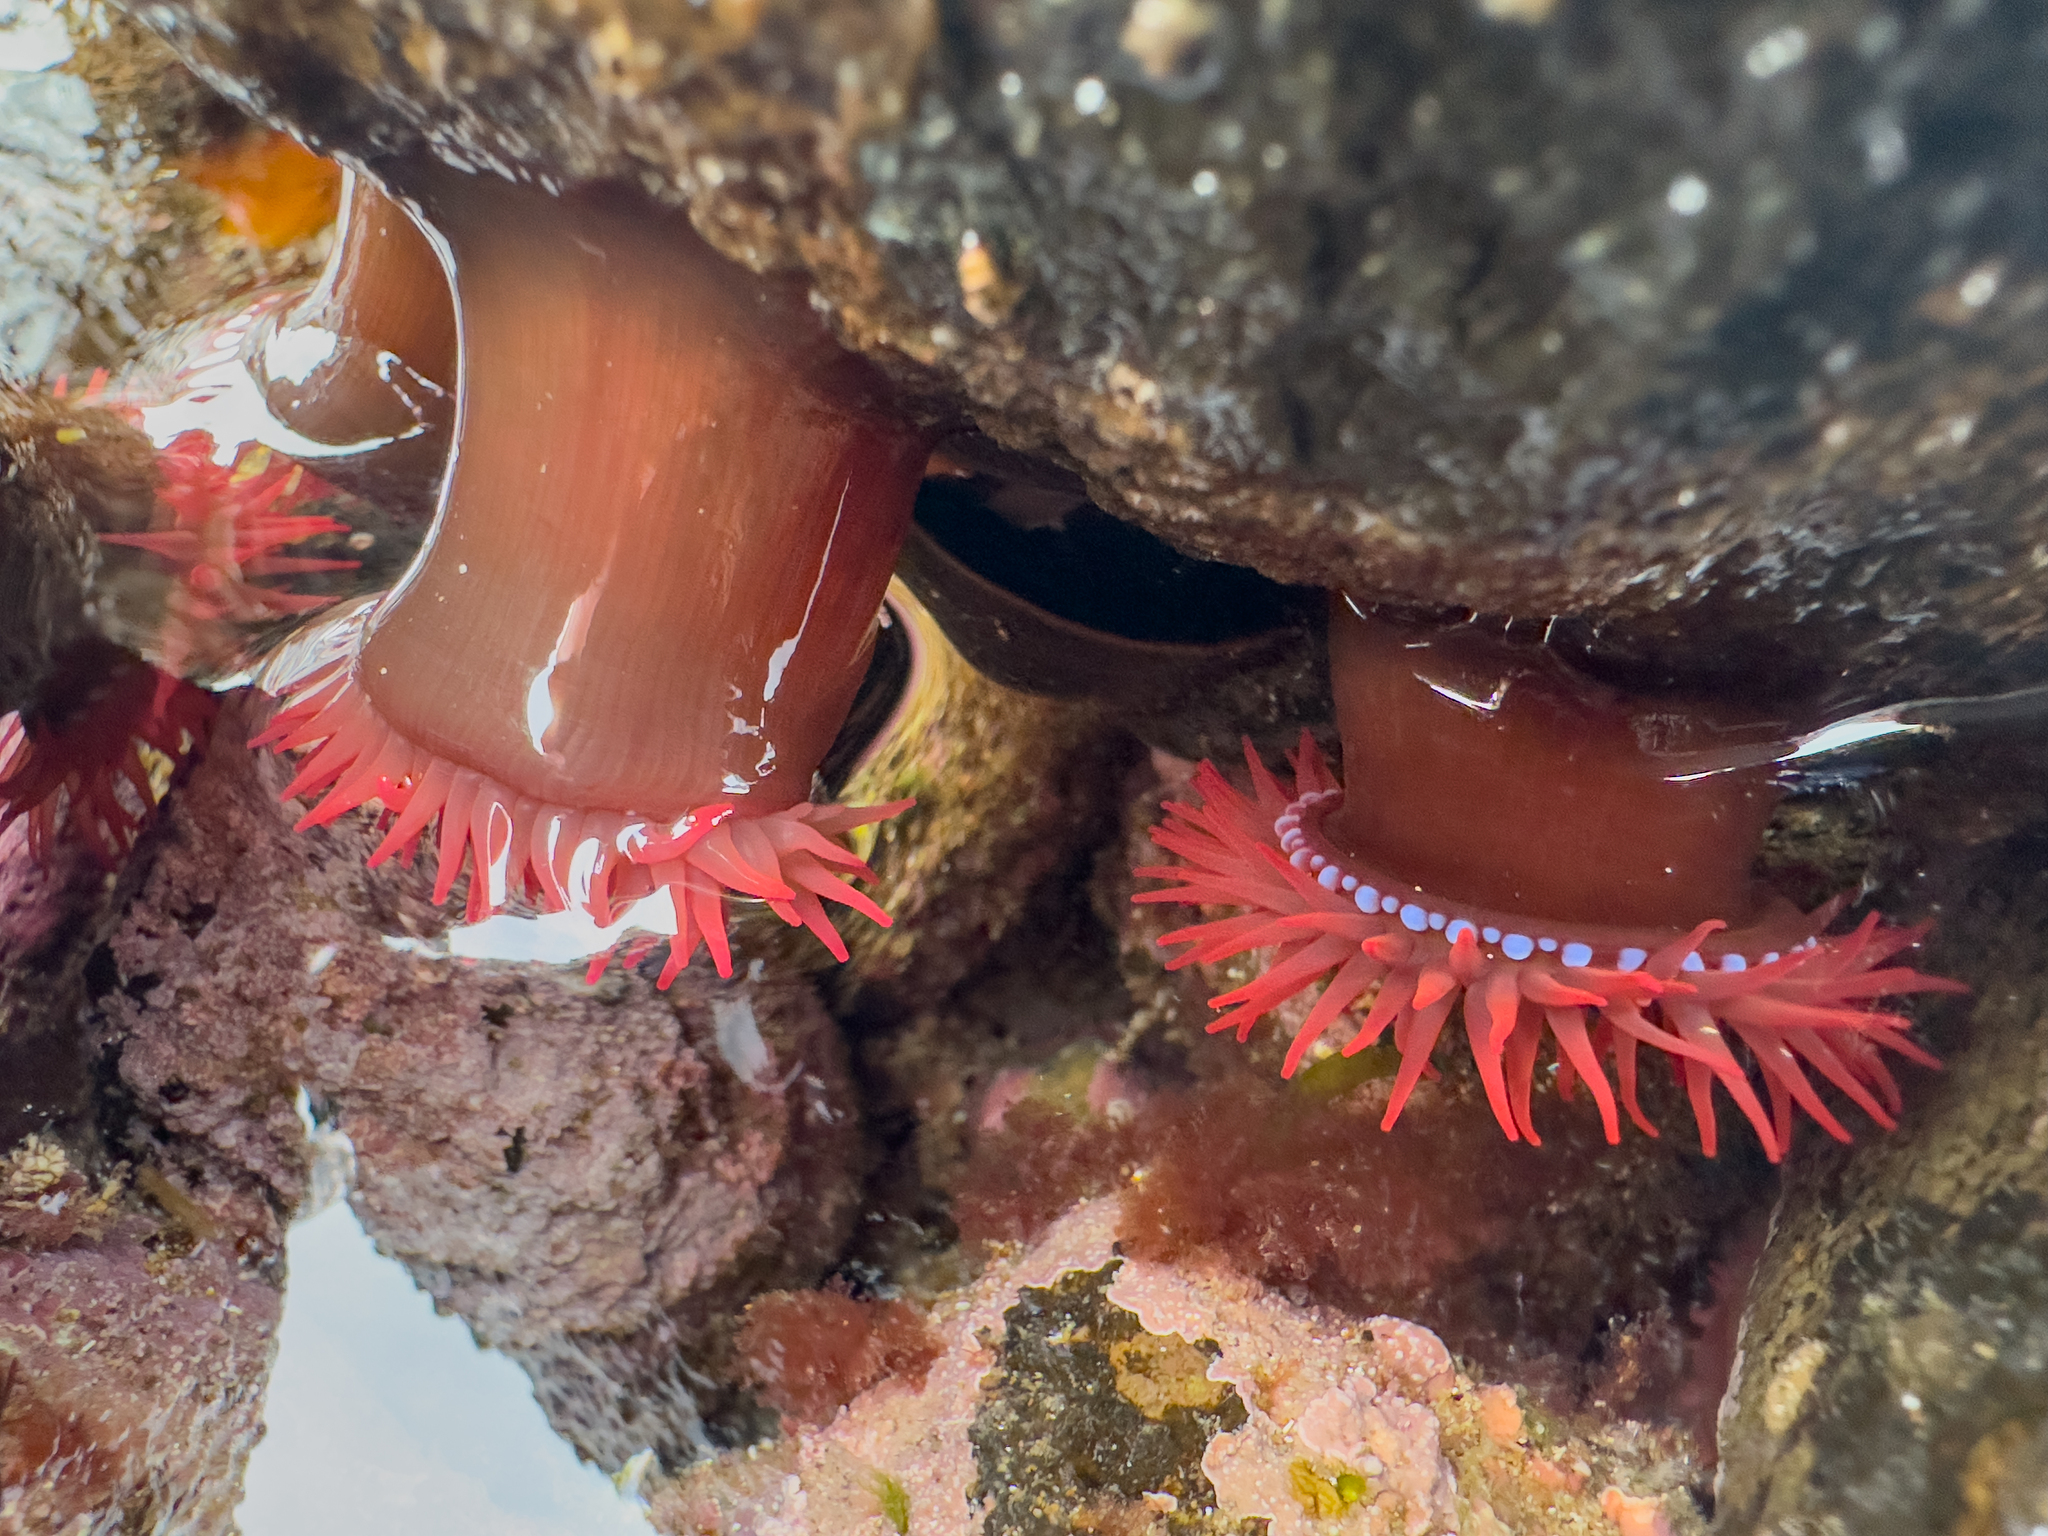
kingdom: Animalia
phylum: Cnidaria
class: Anthozoa
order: Actiniaria
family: Actiniidae
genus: Actinia
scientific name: Actinia tenebrosa
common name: Waratah anemone
